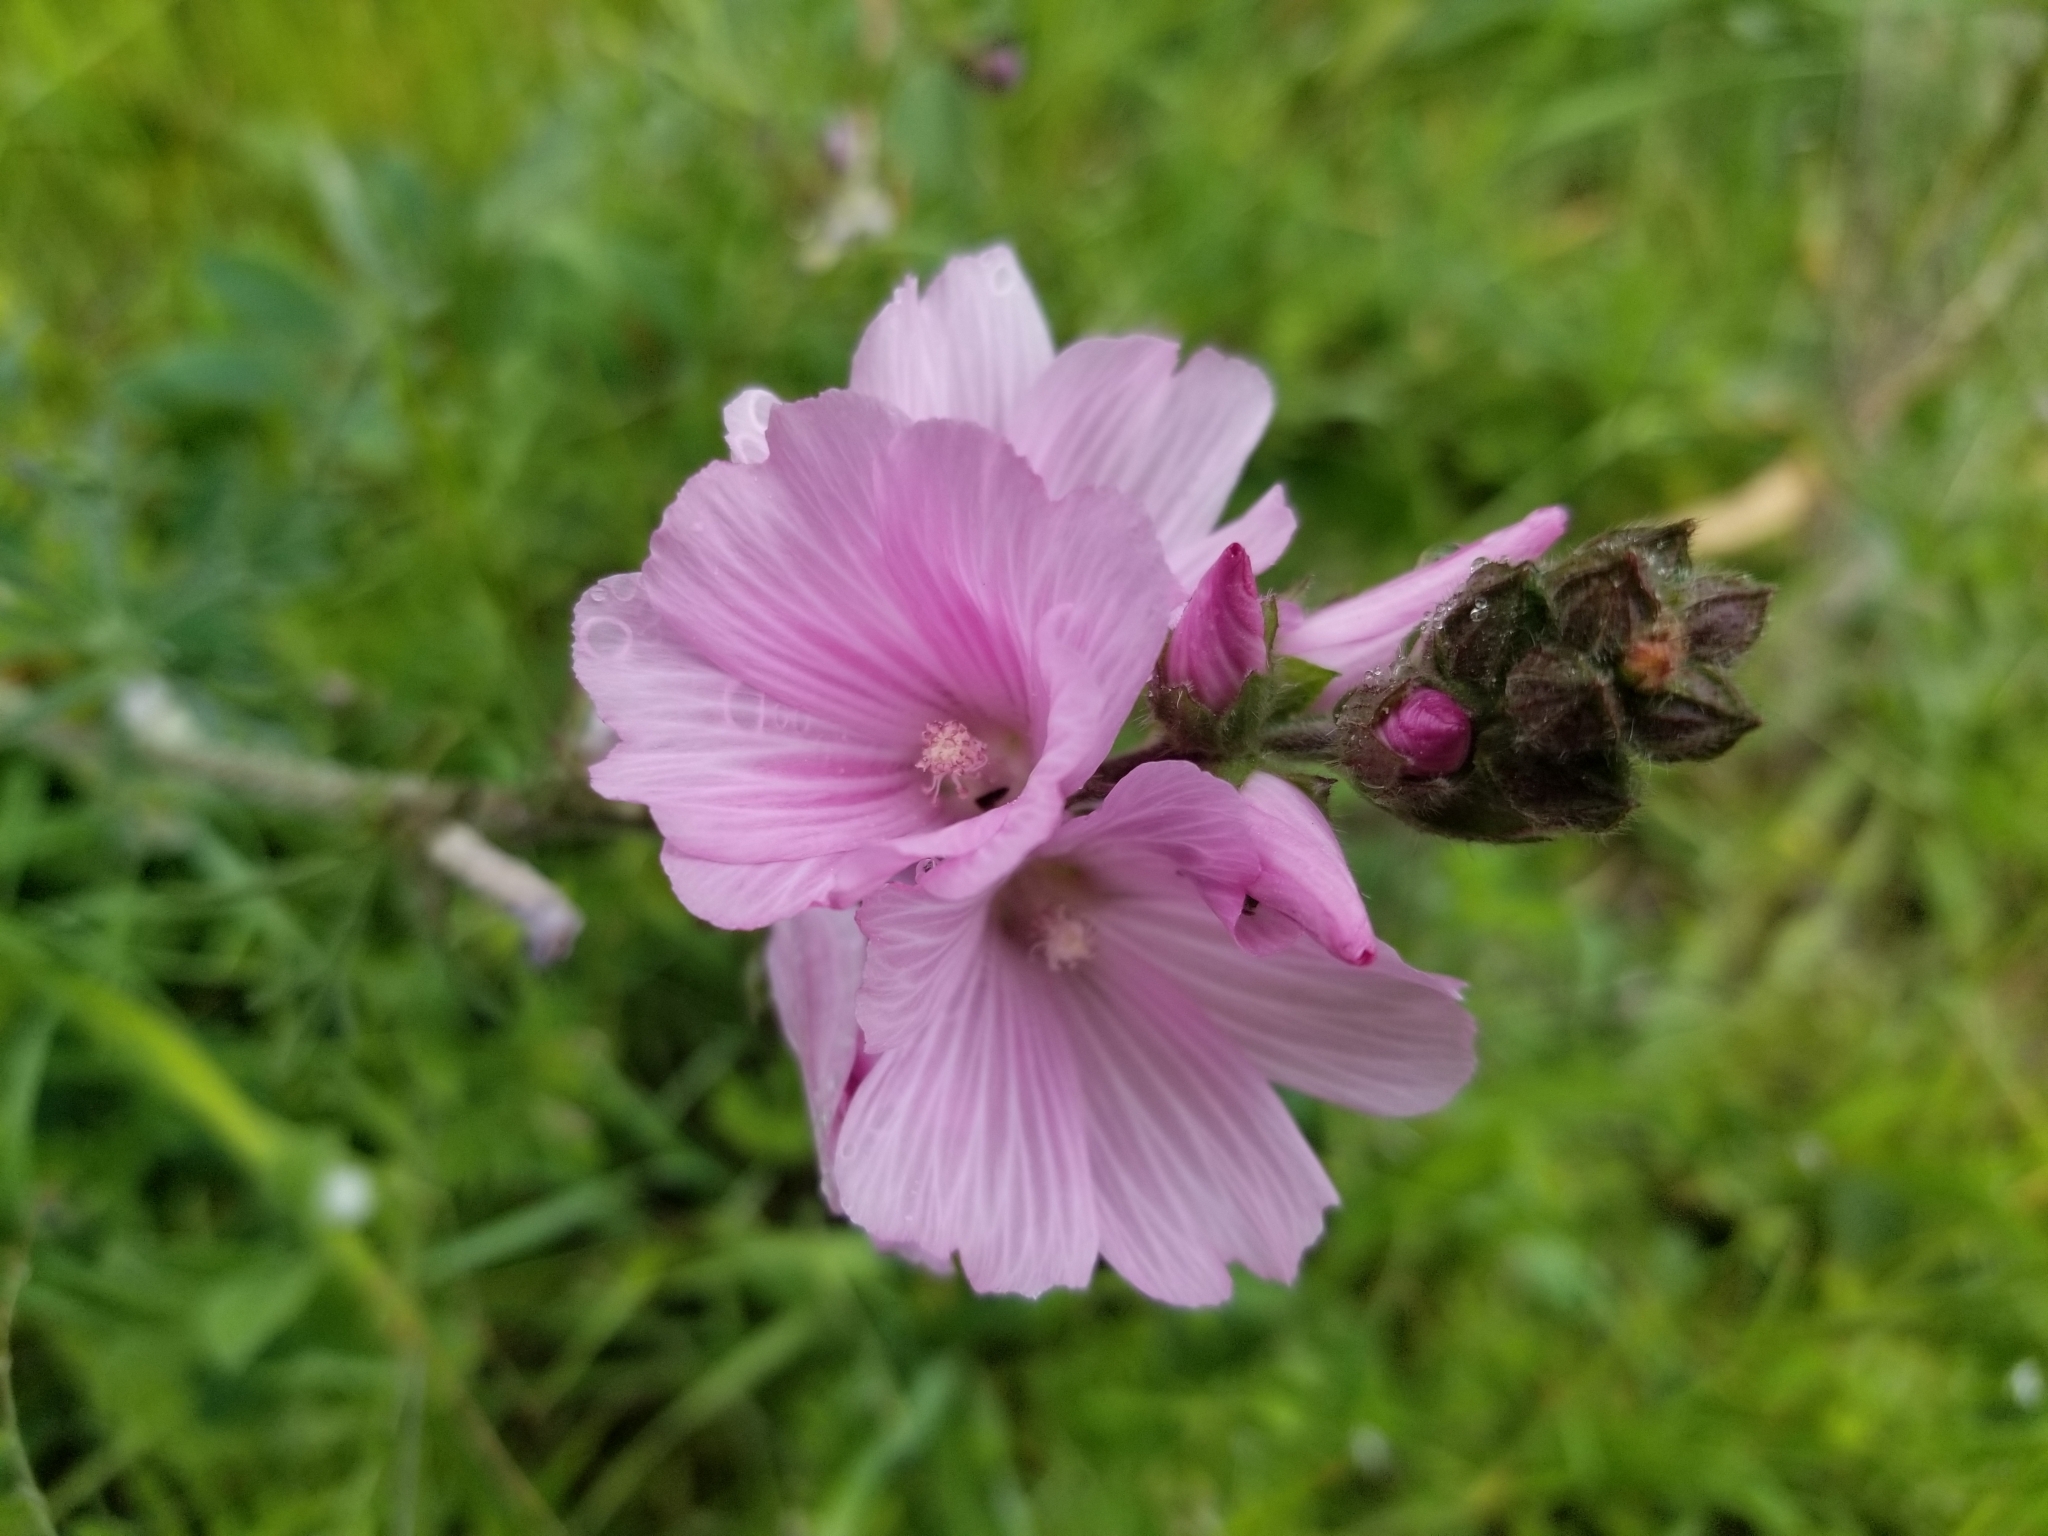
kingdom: Plantae
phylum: Tracheophyta
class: Magnoliopsida
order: Malvales
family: Malvaceae
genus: Sidalcea
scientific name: Sidalcea malviflora
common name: Greek mallow
